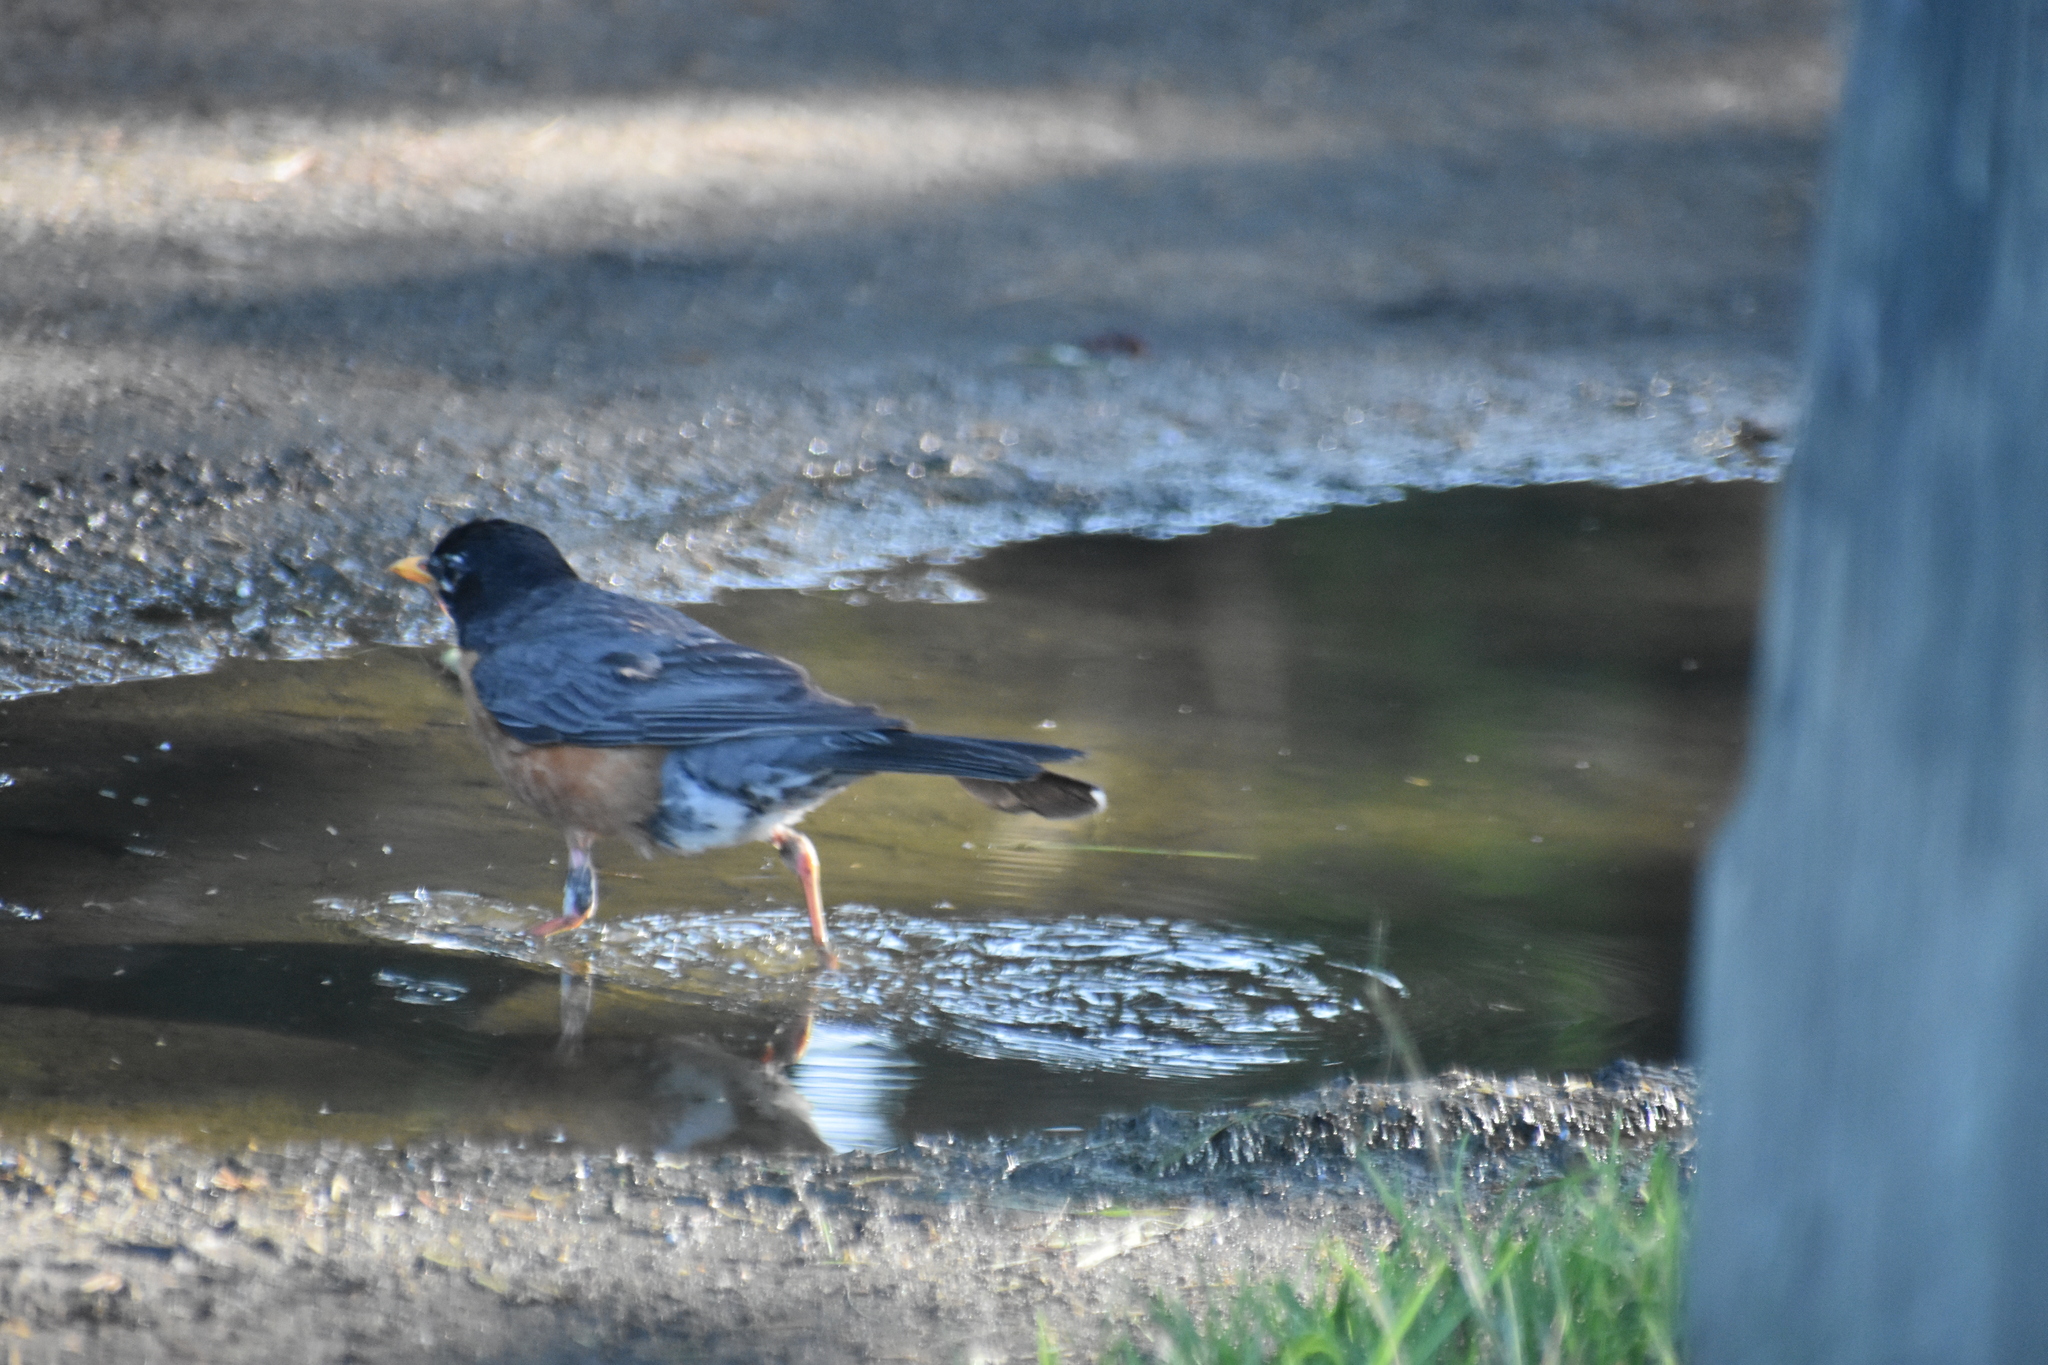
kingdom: Animalia
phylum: Chordata
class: Aves
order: Passeriformes
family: Turdidae
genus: Turdus
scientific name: Turdus migratorius
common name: American robin
